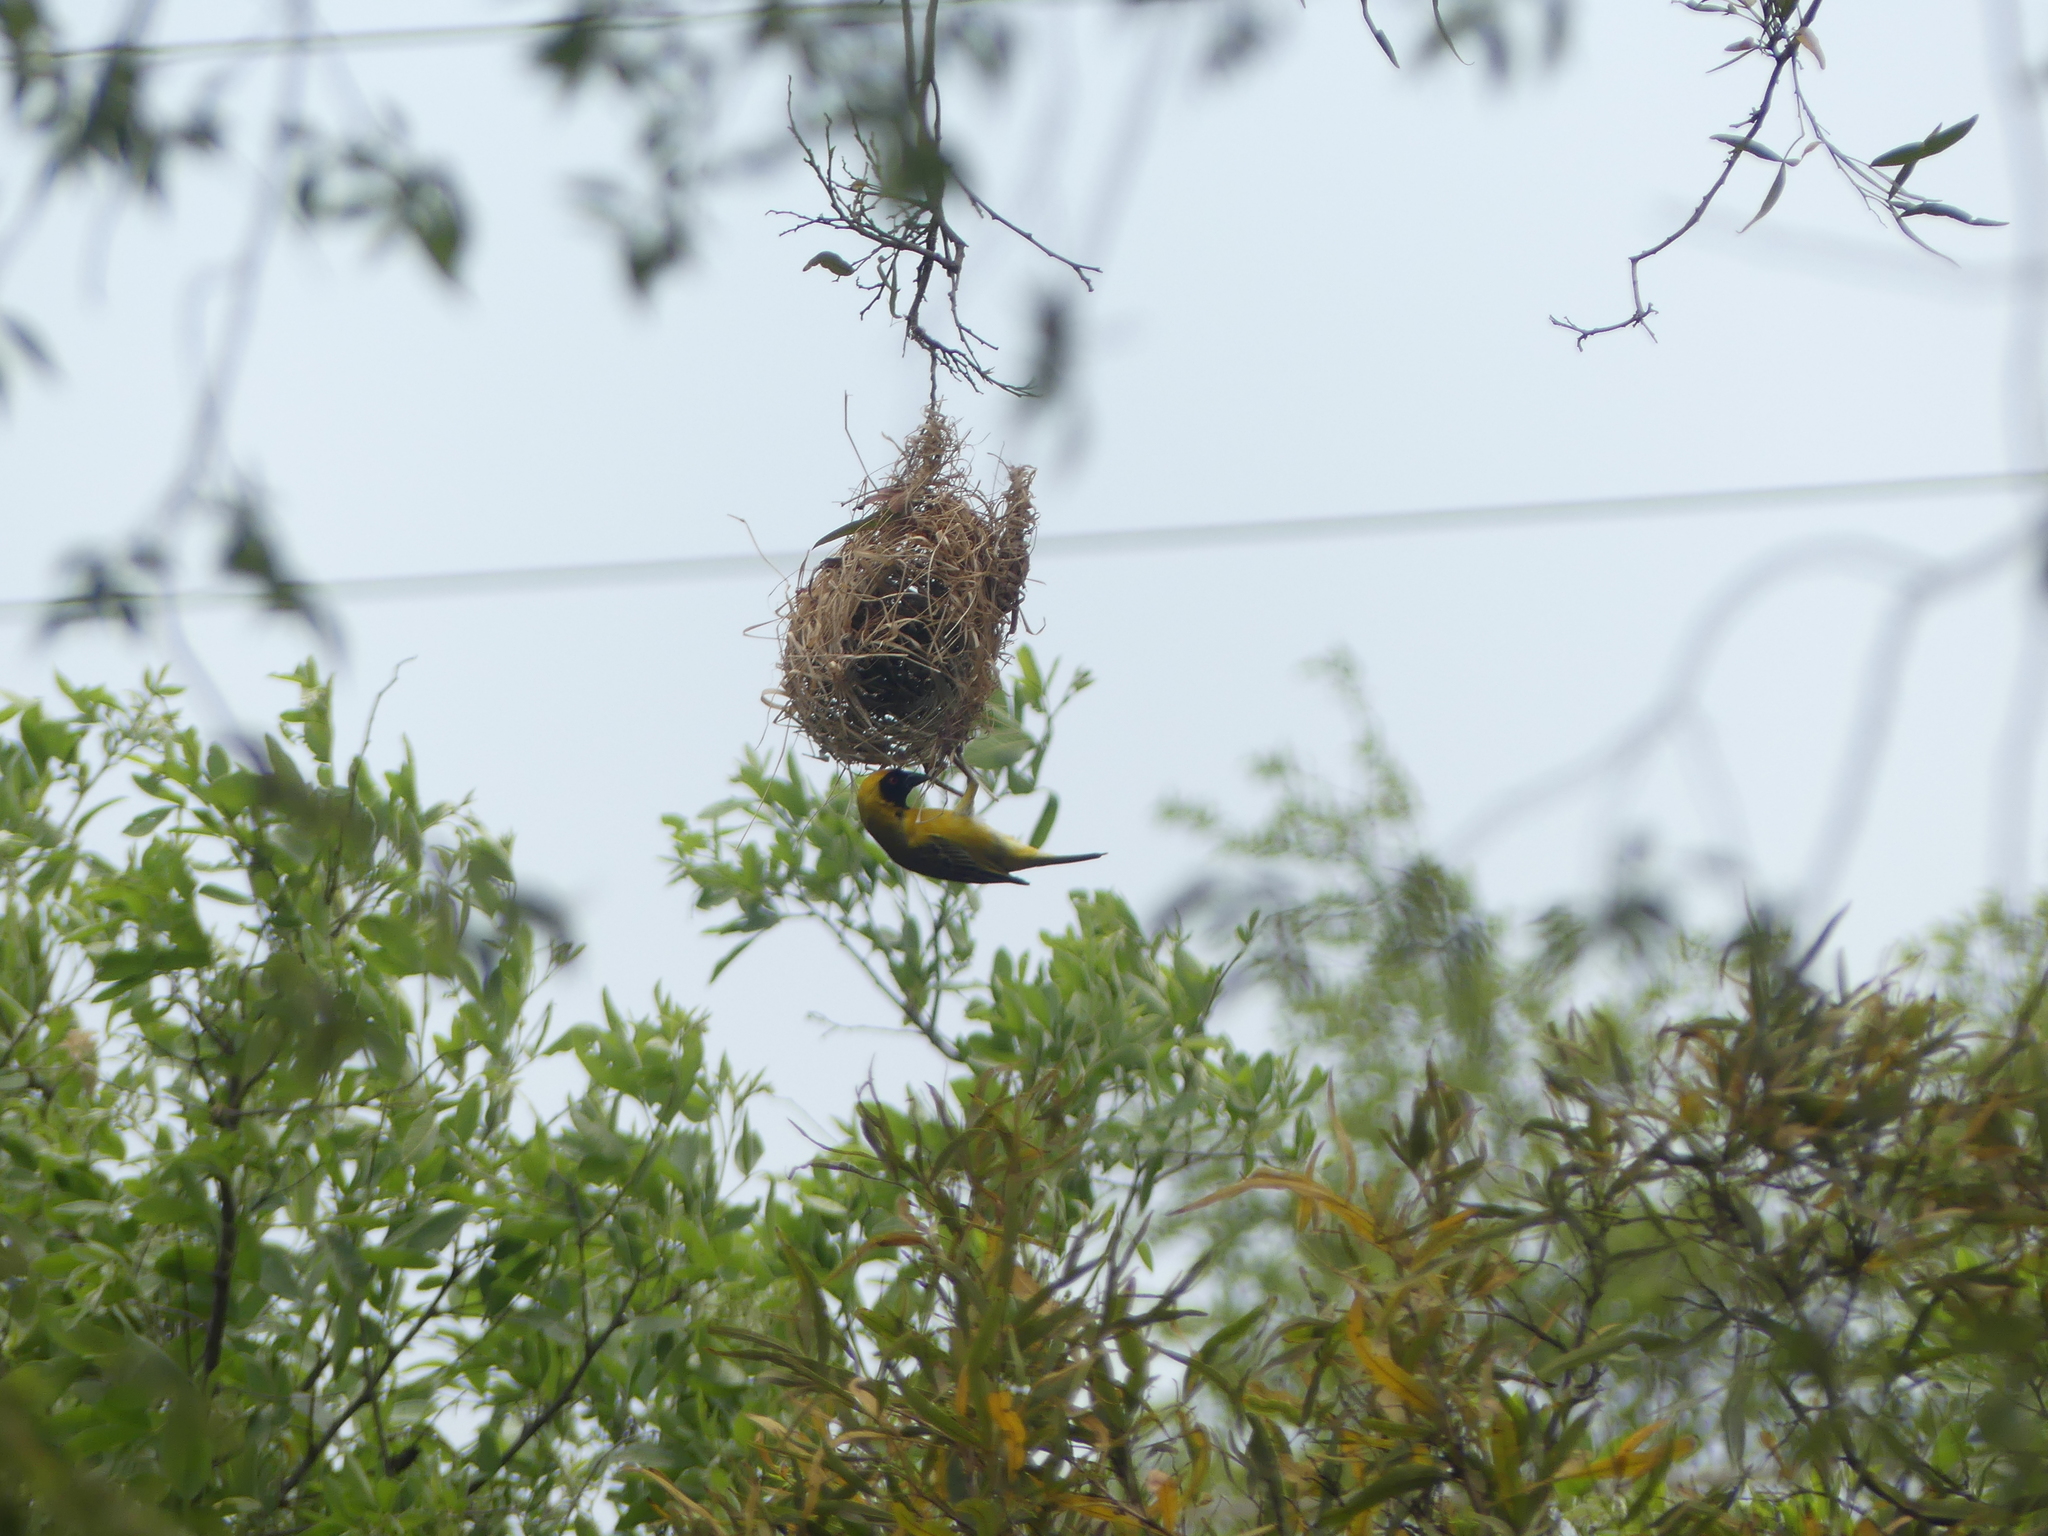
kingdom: Animalia
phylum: Chordata
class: Aves
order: Passeriformes
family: Ploceidae
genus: Ploceus
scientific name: Ploceus velatus
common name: Southern masked weaver
